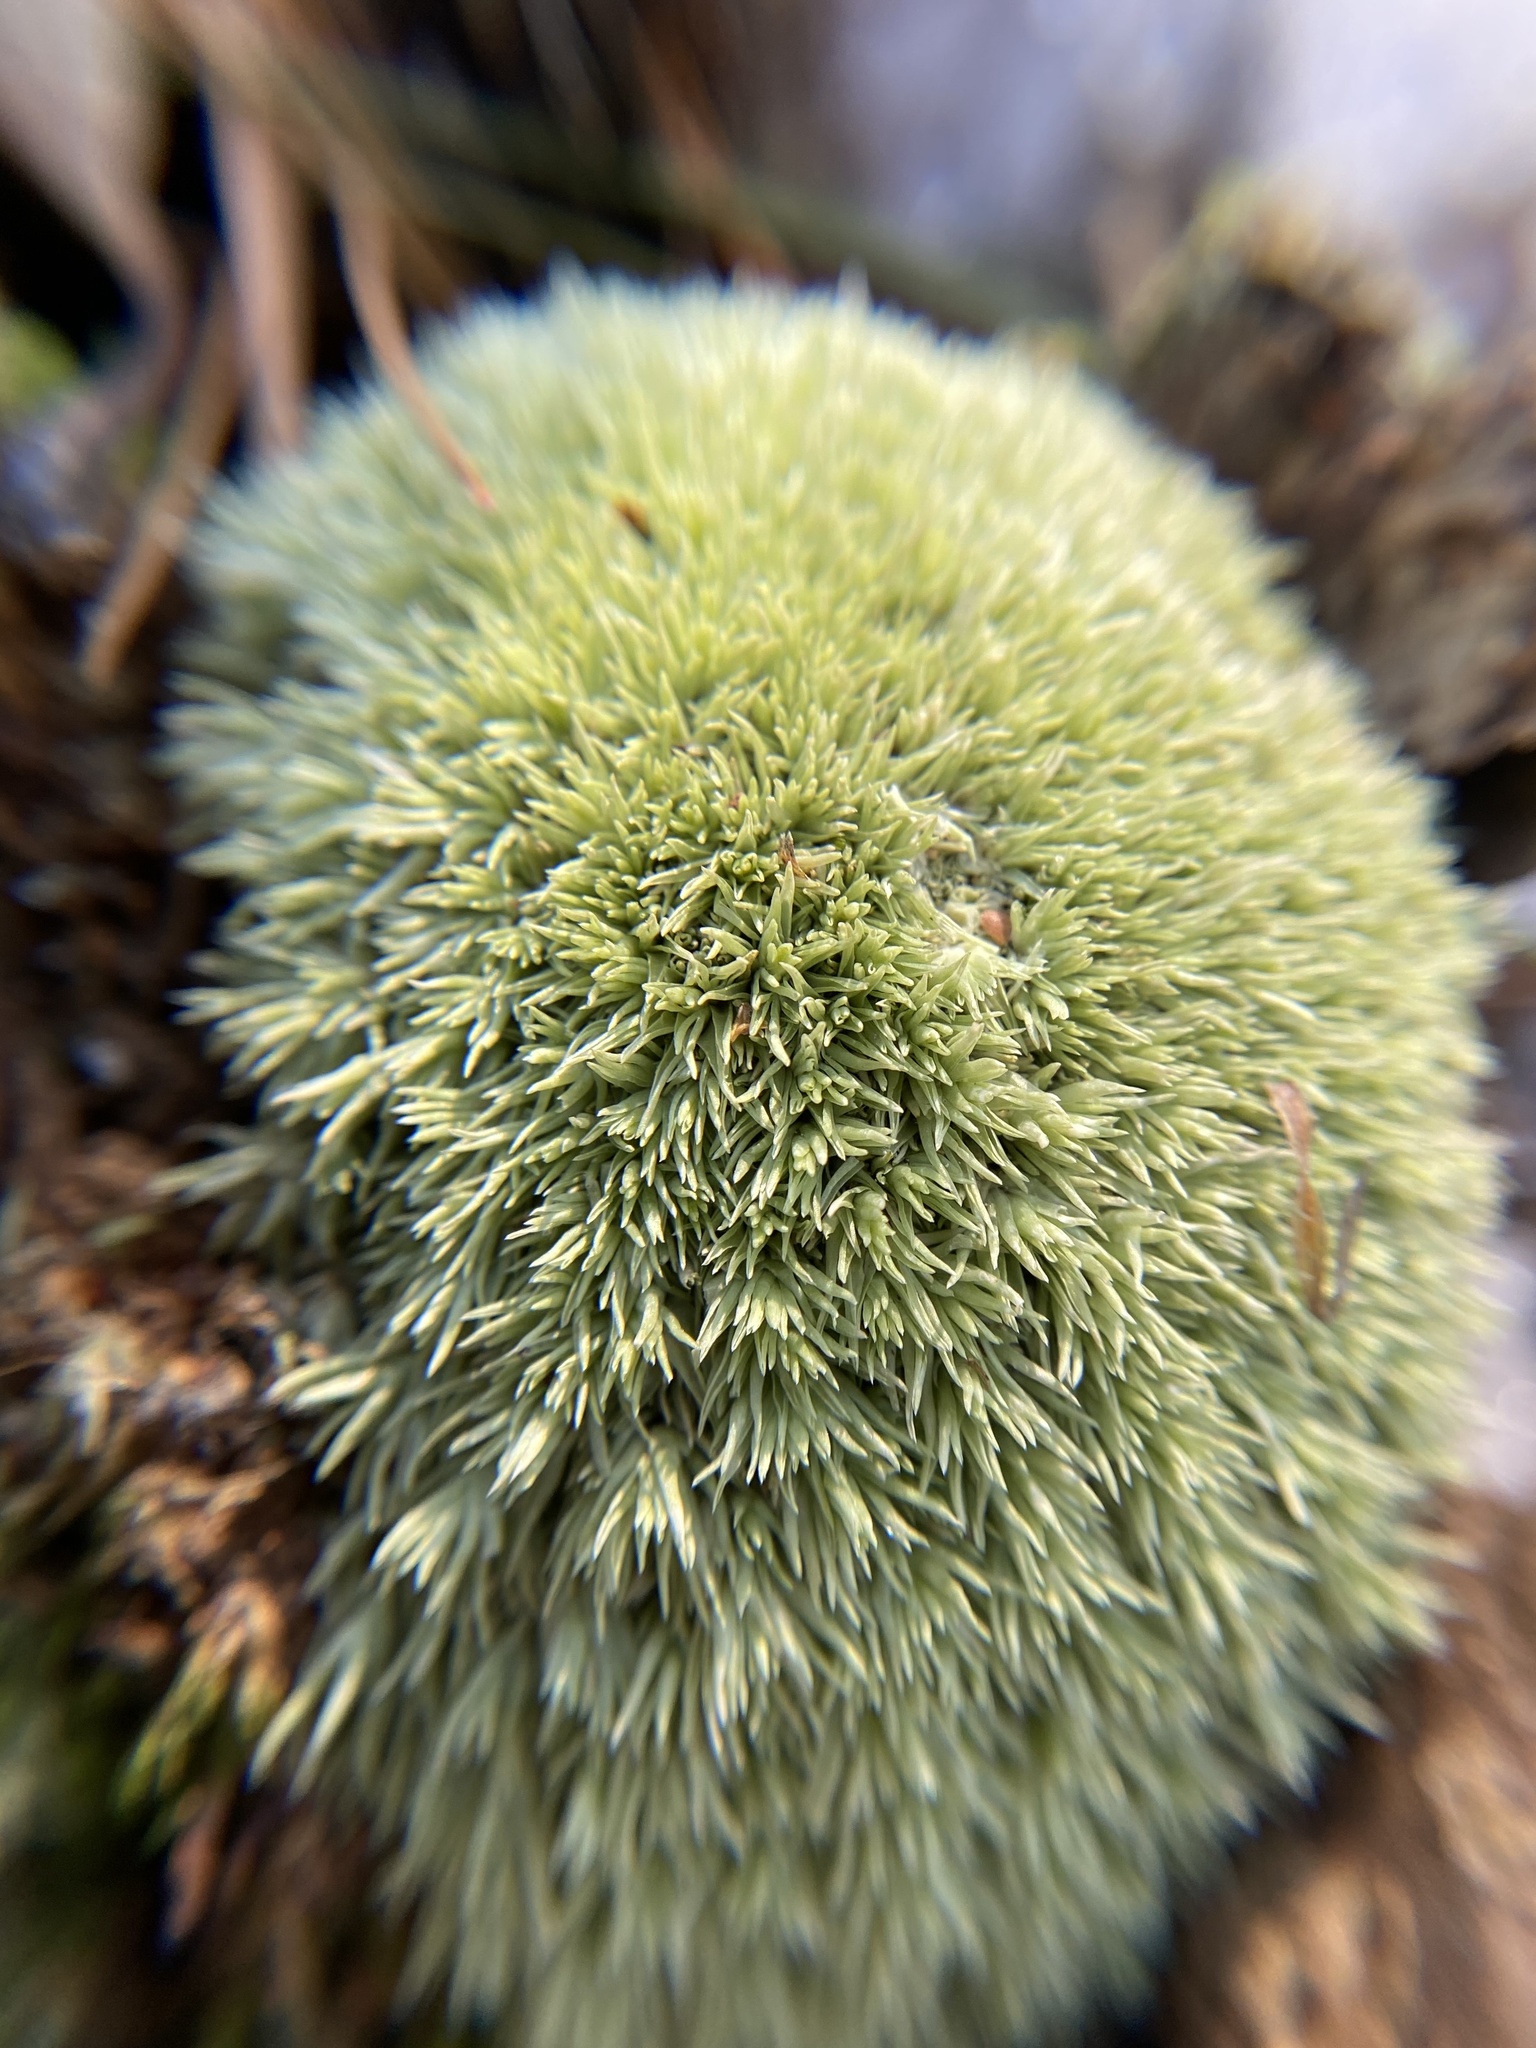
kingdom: Plantae
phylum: Bryophyta
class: Bryopsida
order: Dicranales
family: Leucobryaceae
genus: Leucobryum
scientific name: Leucobryum glaucum
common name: Large white-moss
